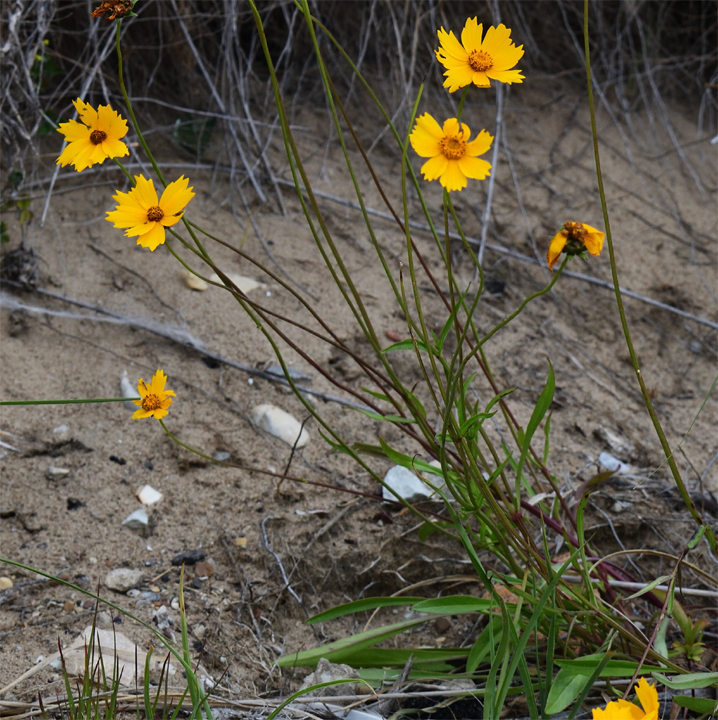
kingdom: Plantae
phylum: Tracheophyta
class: Magnoliopsida
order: Asterales
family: Asteraceae
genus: Coreopsis
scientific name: Coreopsis lanceolata
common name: Garden coreopsis
